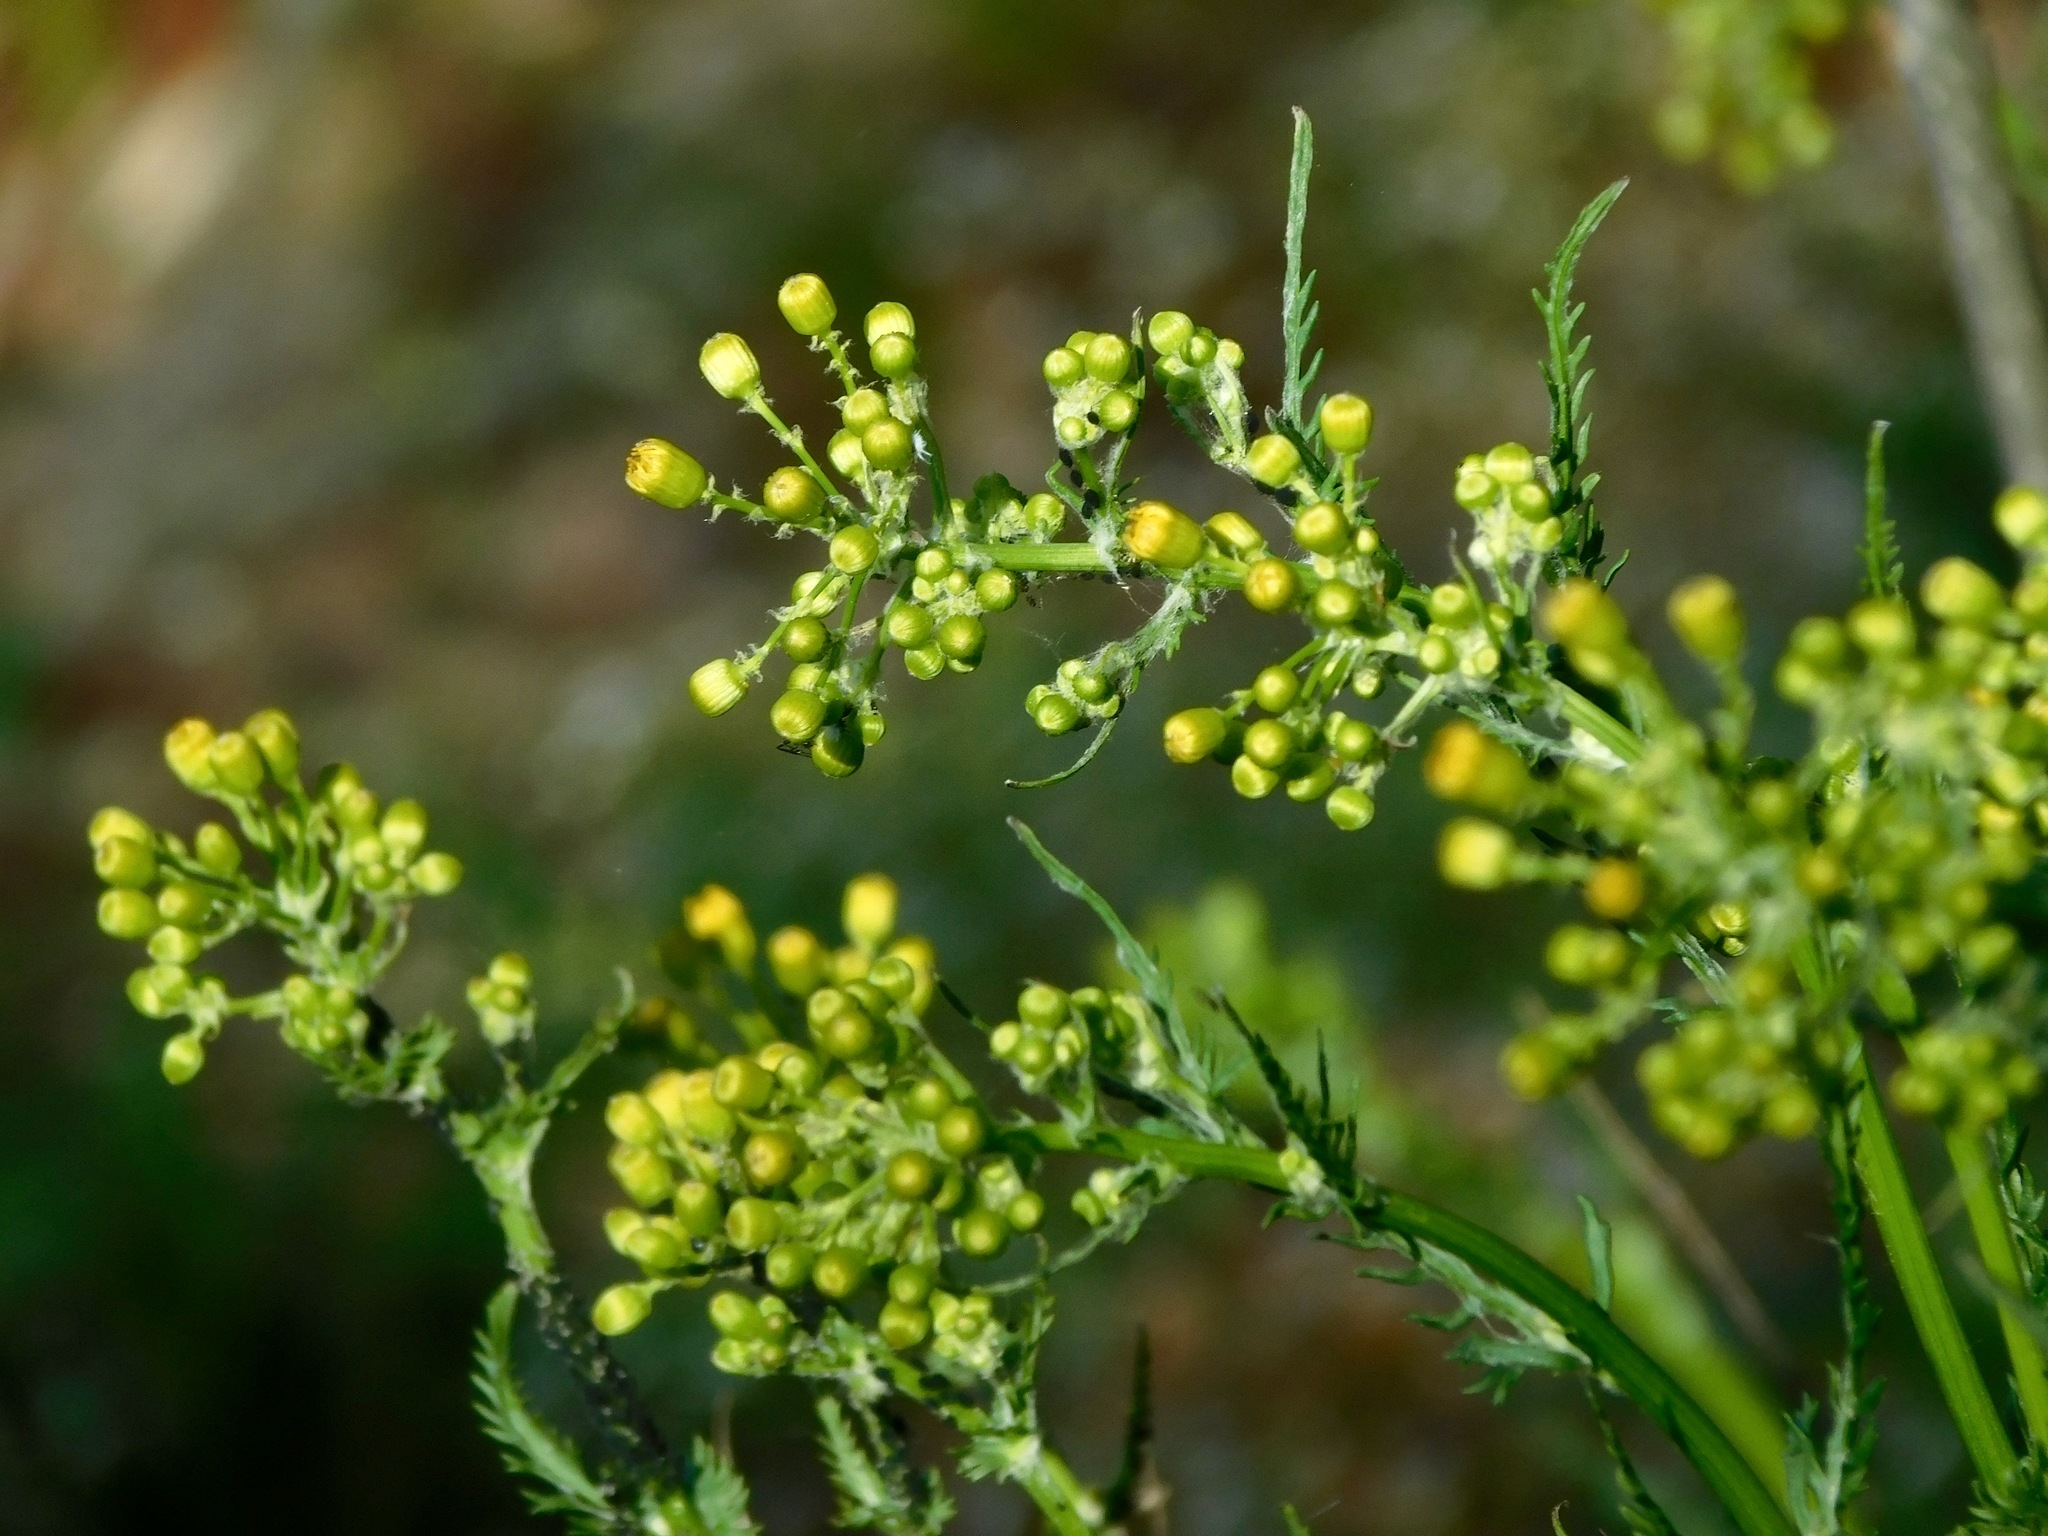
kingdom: Plantae
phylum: Tracheophyta
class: Magnoliopsida
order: Asterales
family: Asteraceae
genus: Packera
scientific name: Packera anonyma
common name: Small ragwort
